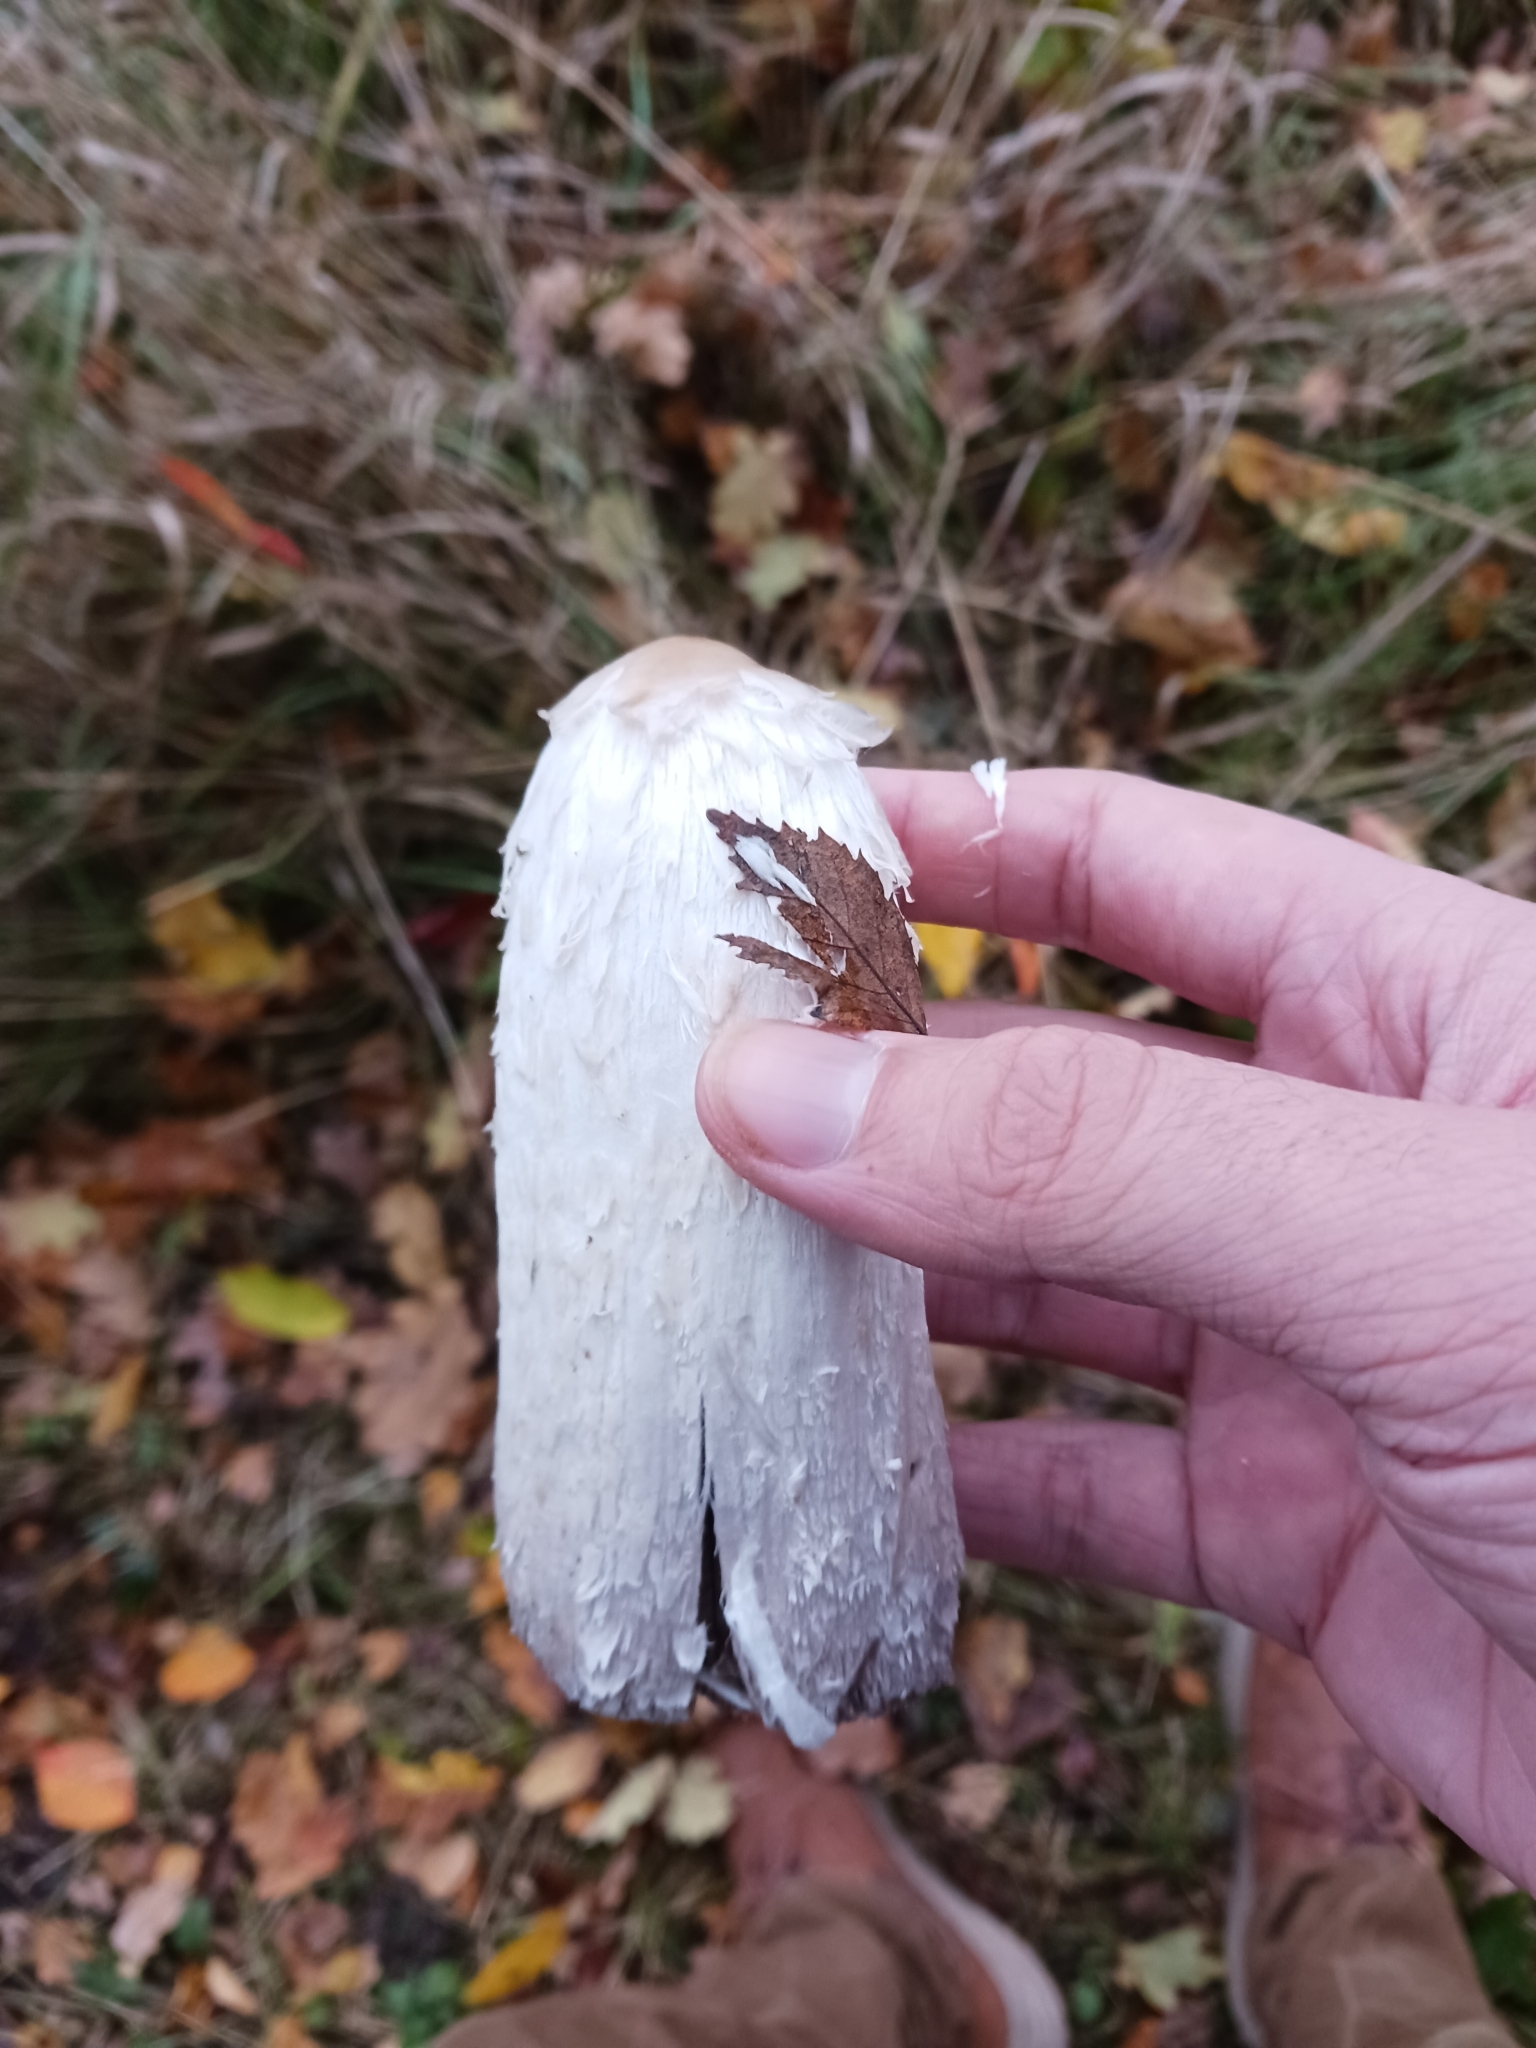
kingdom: Fungi
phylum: Basidiomycota
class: Agaricomycetes
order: Agaricales
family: Agaricaceae
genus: Coprinus
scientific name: Coprinus comatus
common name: Lawyer's wig
